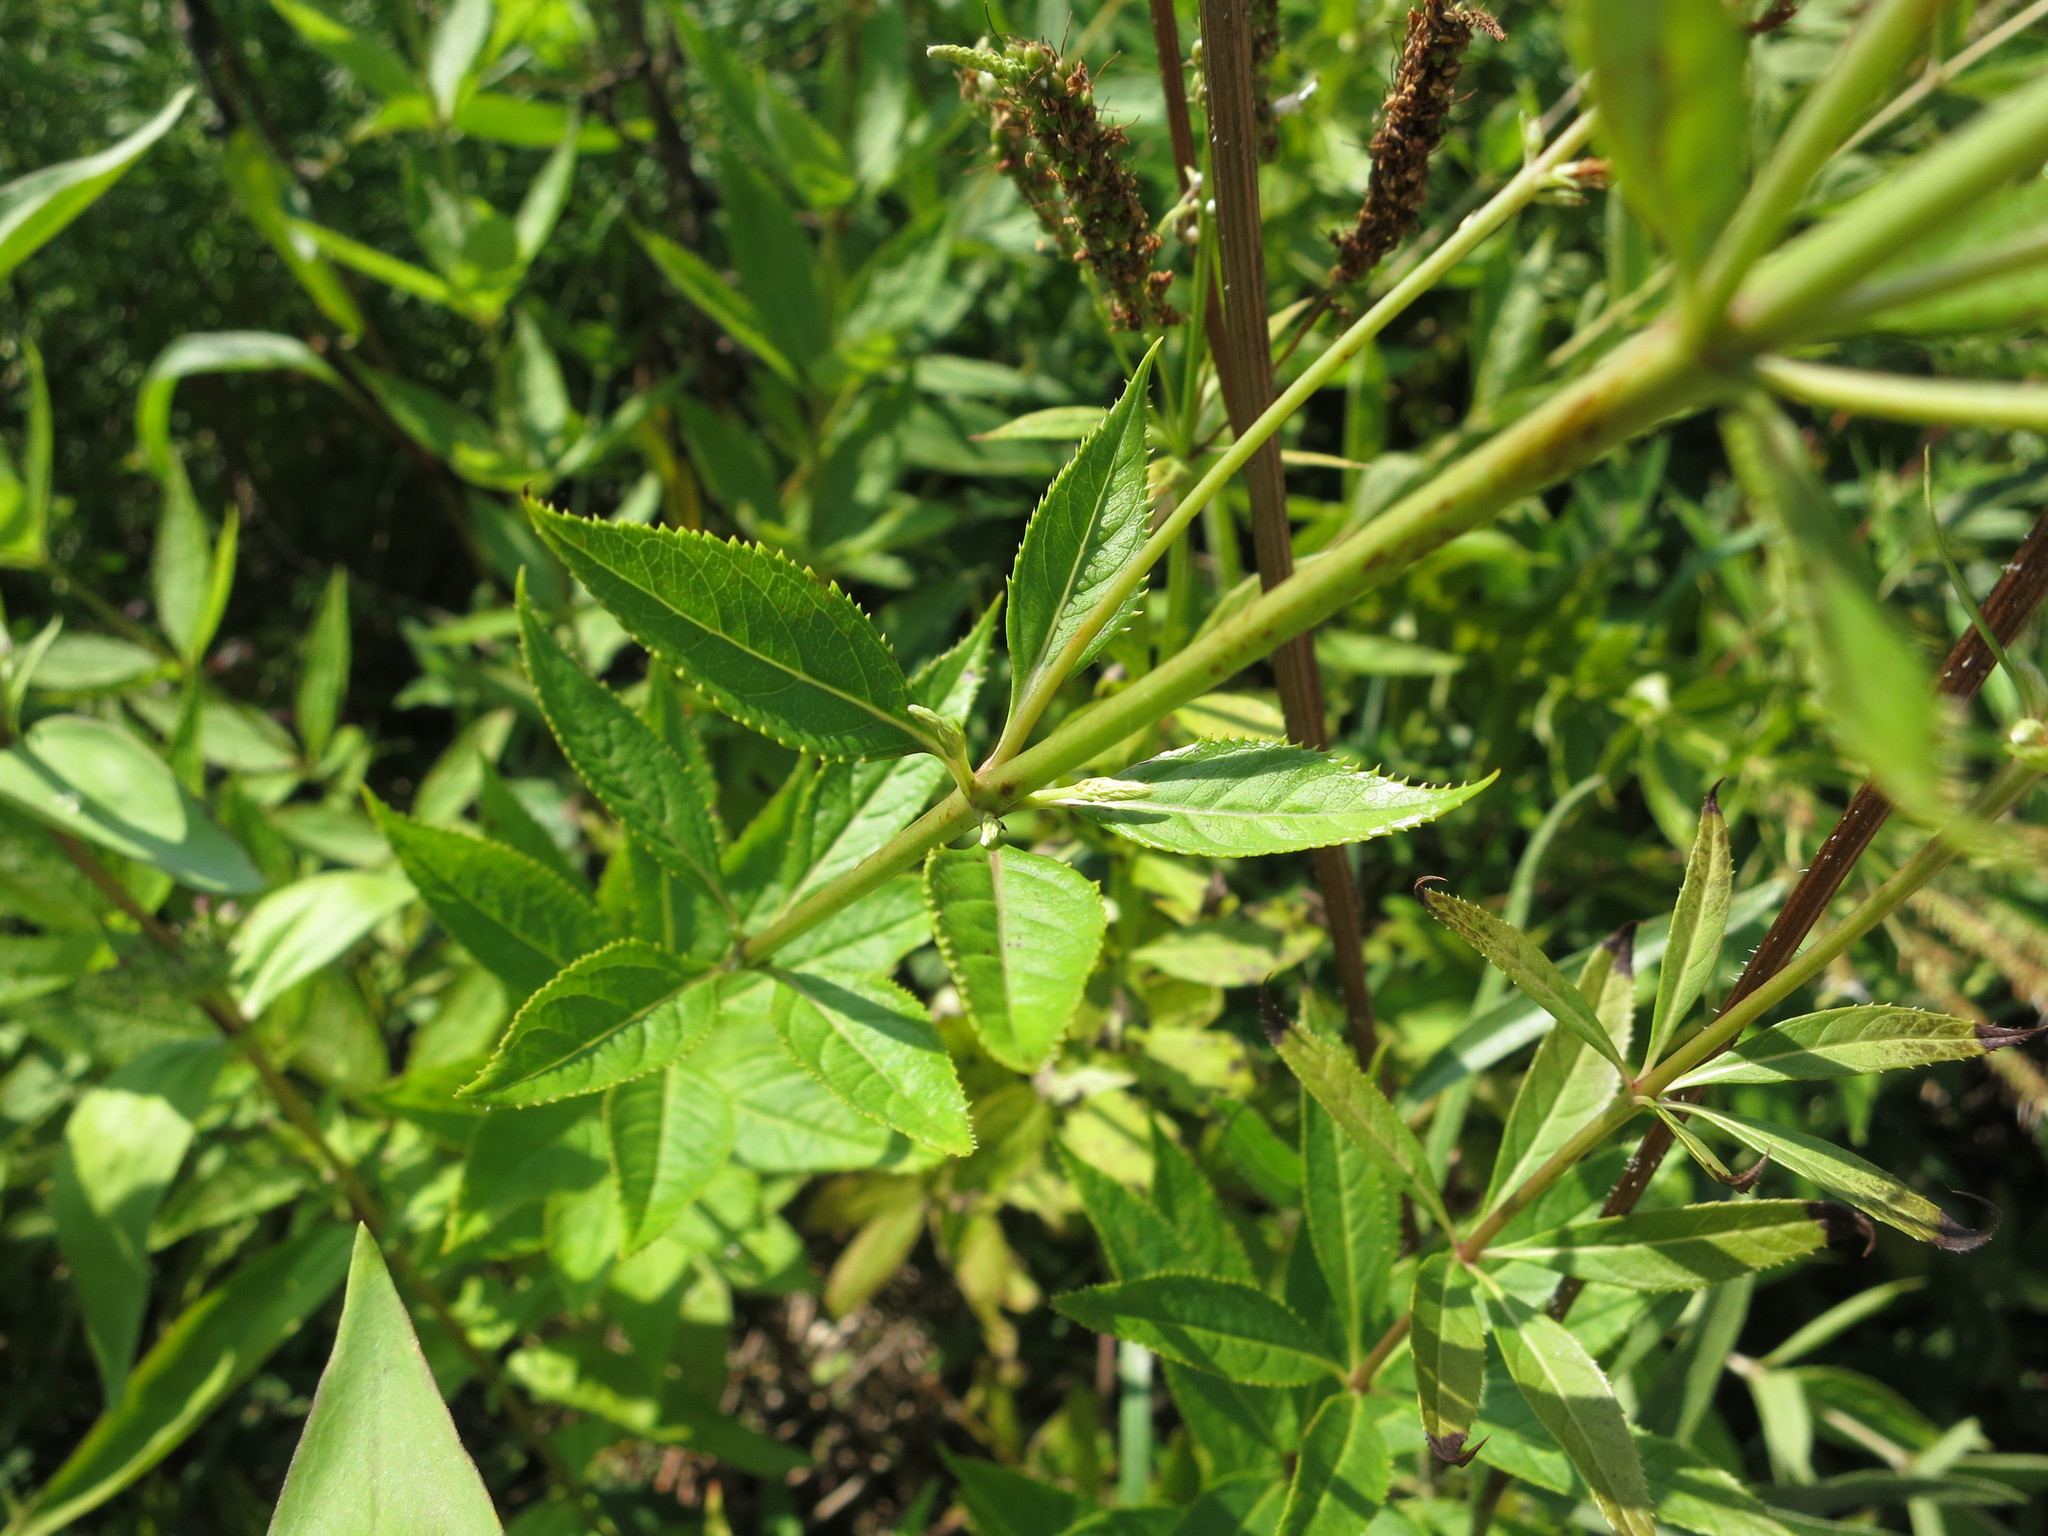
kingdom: Plantae
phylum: Tracheophyta
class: Magnoliopsida
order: Lamiales
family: Plantaginaceae
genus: Veronicastrum
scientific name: Veronicastrum virginicum
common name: Blackroot
